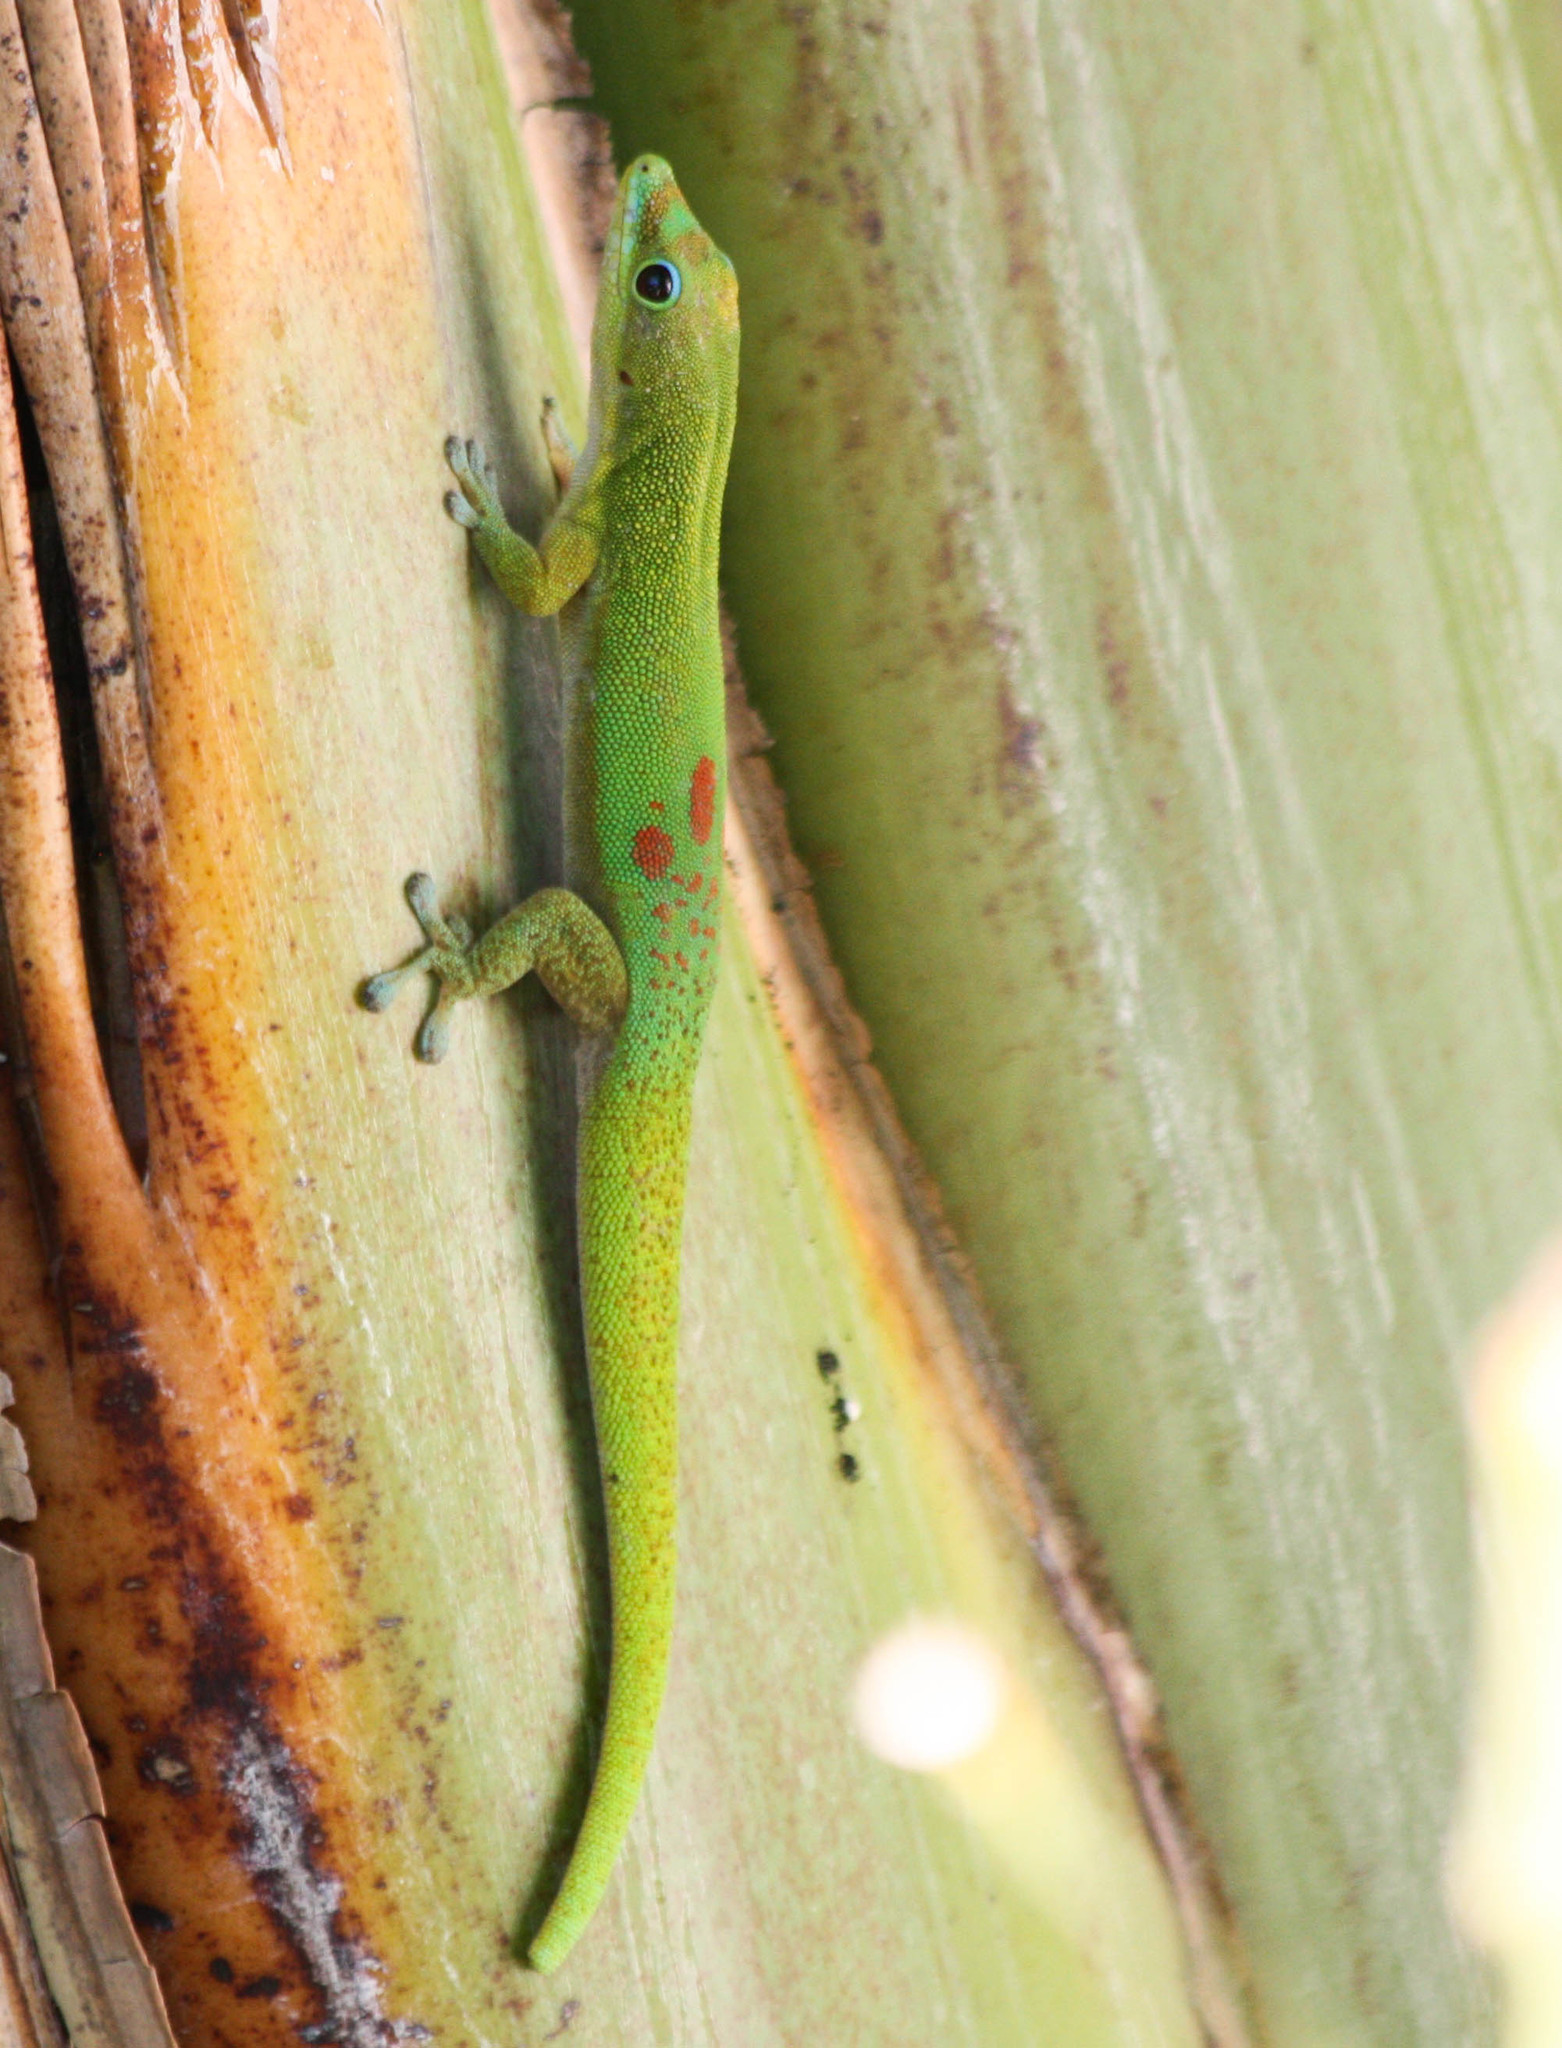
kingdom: Animalia
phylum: Chordata
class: Squamata
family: Gekkonidae
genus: Phelsuma
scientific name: Phelsuma laticauda
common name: Gold dust day gecko
